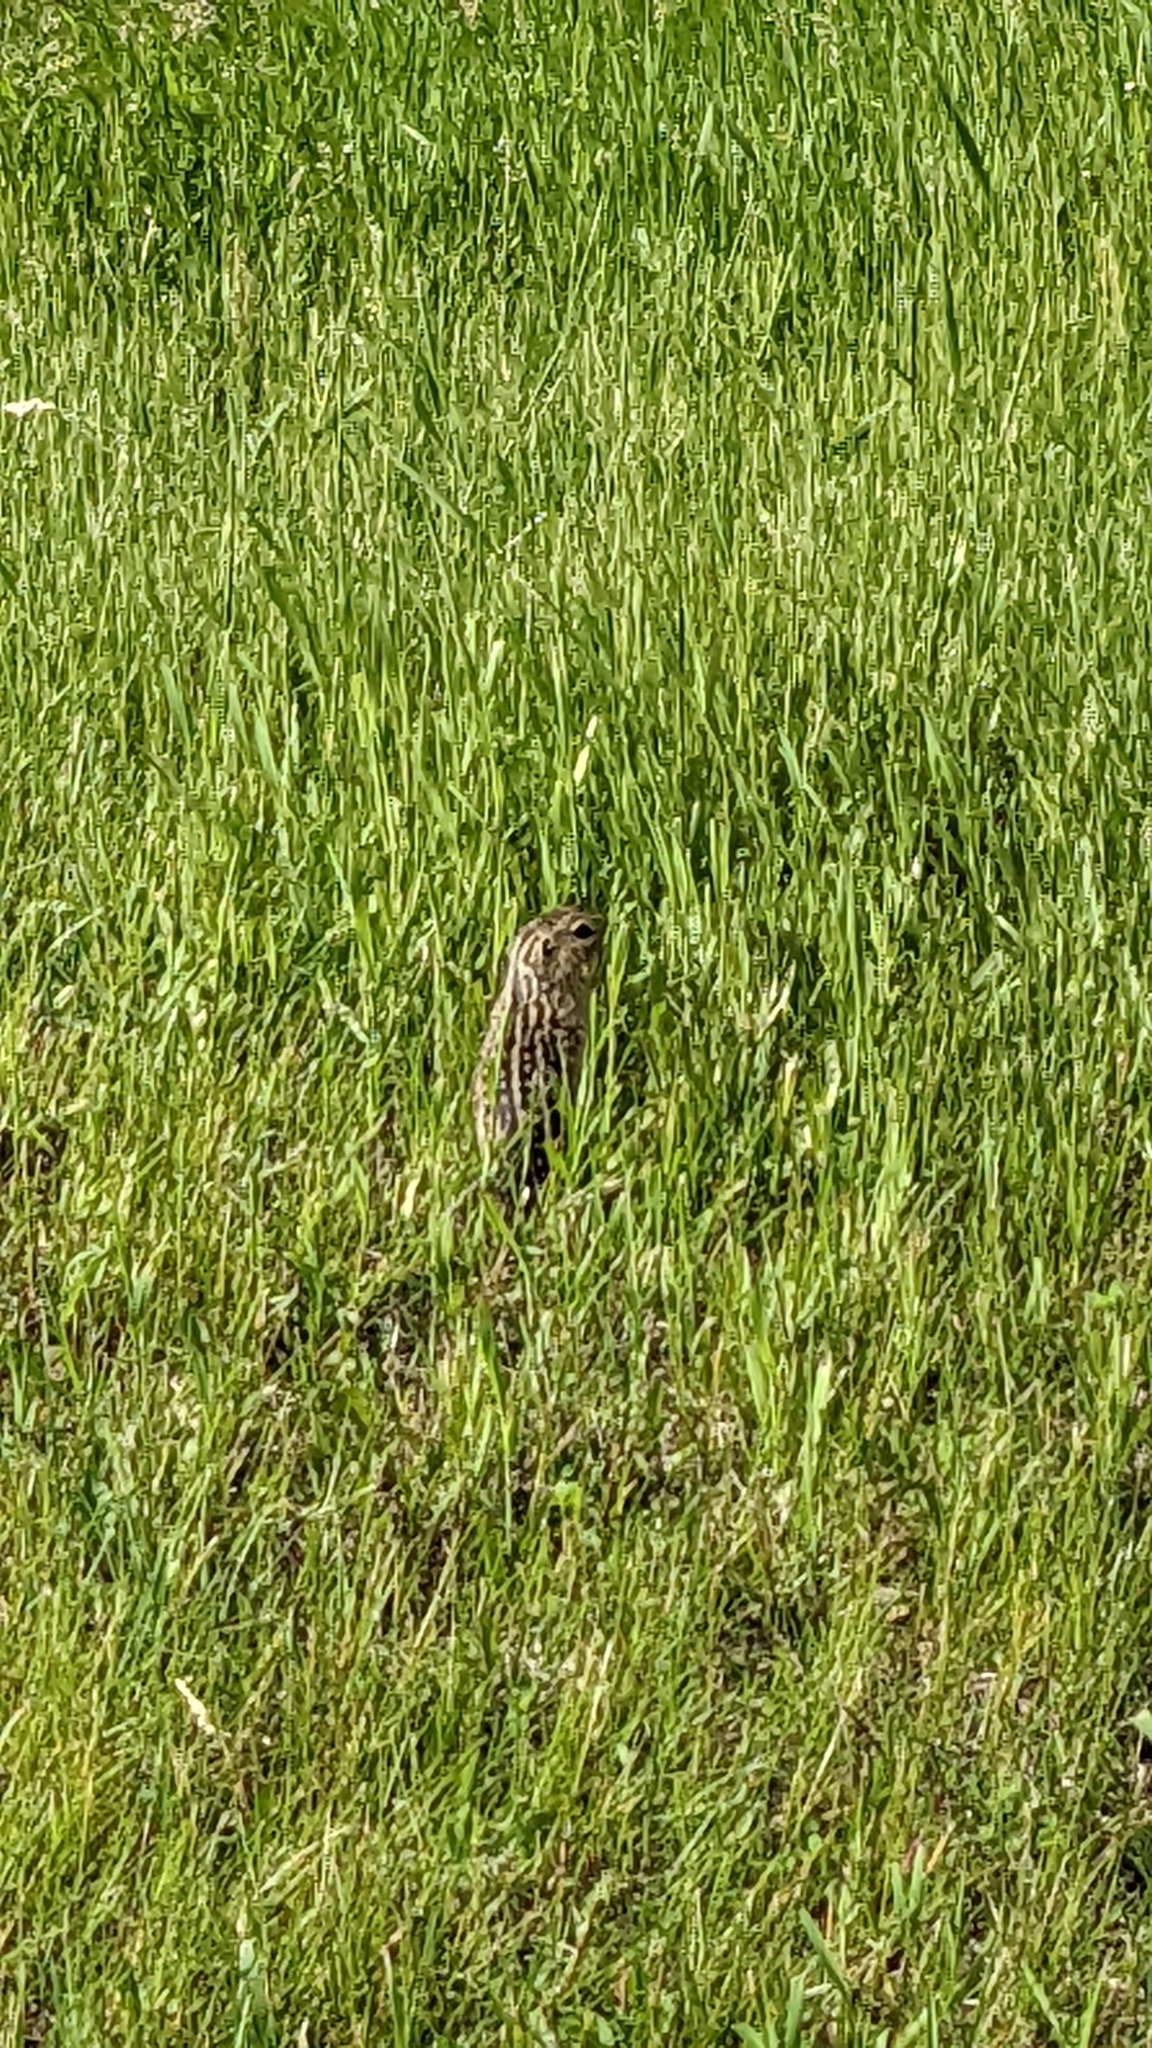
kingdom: Animalia
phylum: Chordata
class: Mammalia
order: Rodentia
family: Sciuridae
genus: Ictidomys
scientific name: Ictidomys tridecemlineatus
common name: Thirteen-lined ground squirrel
